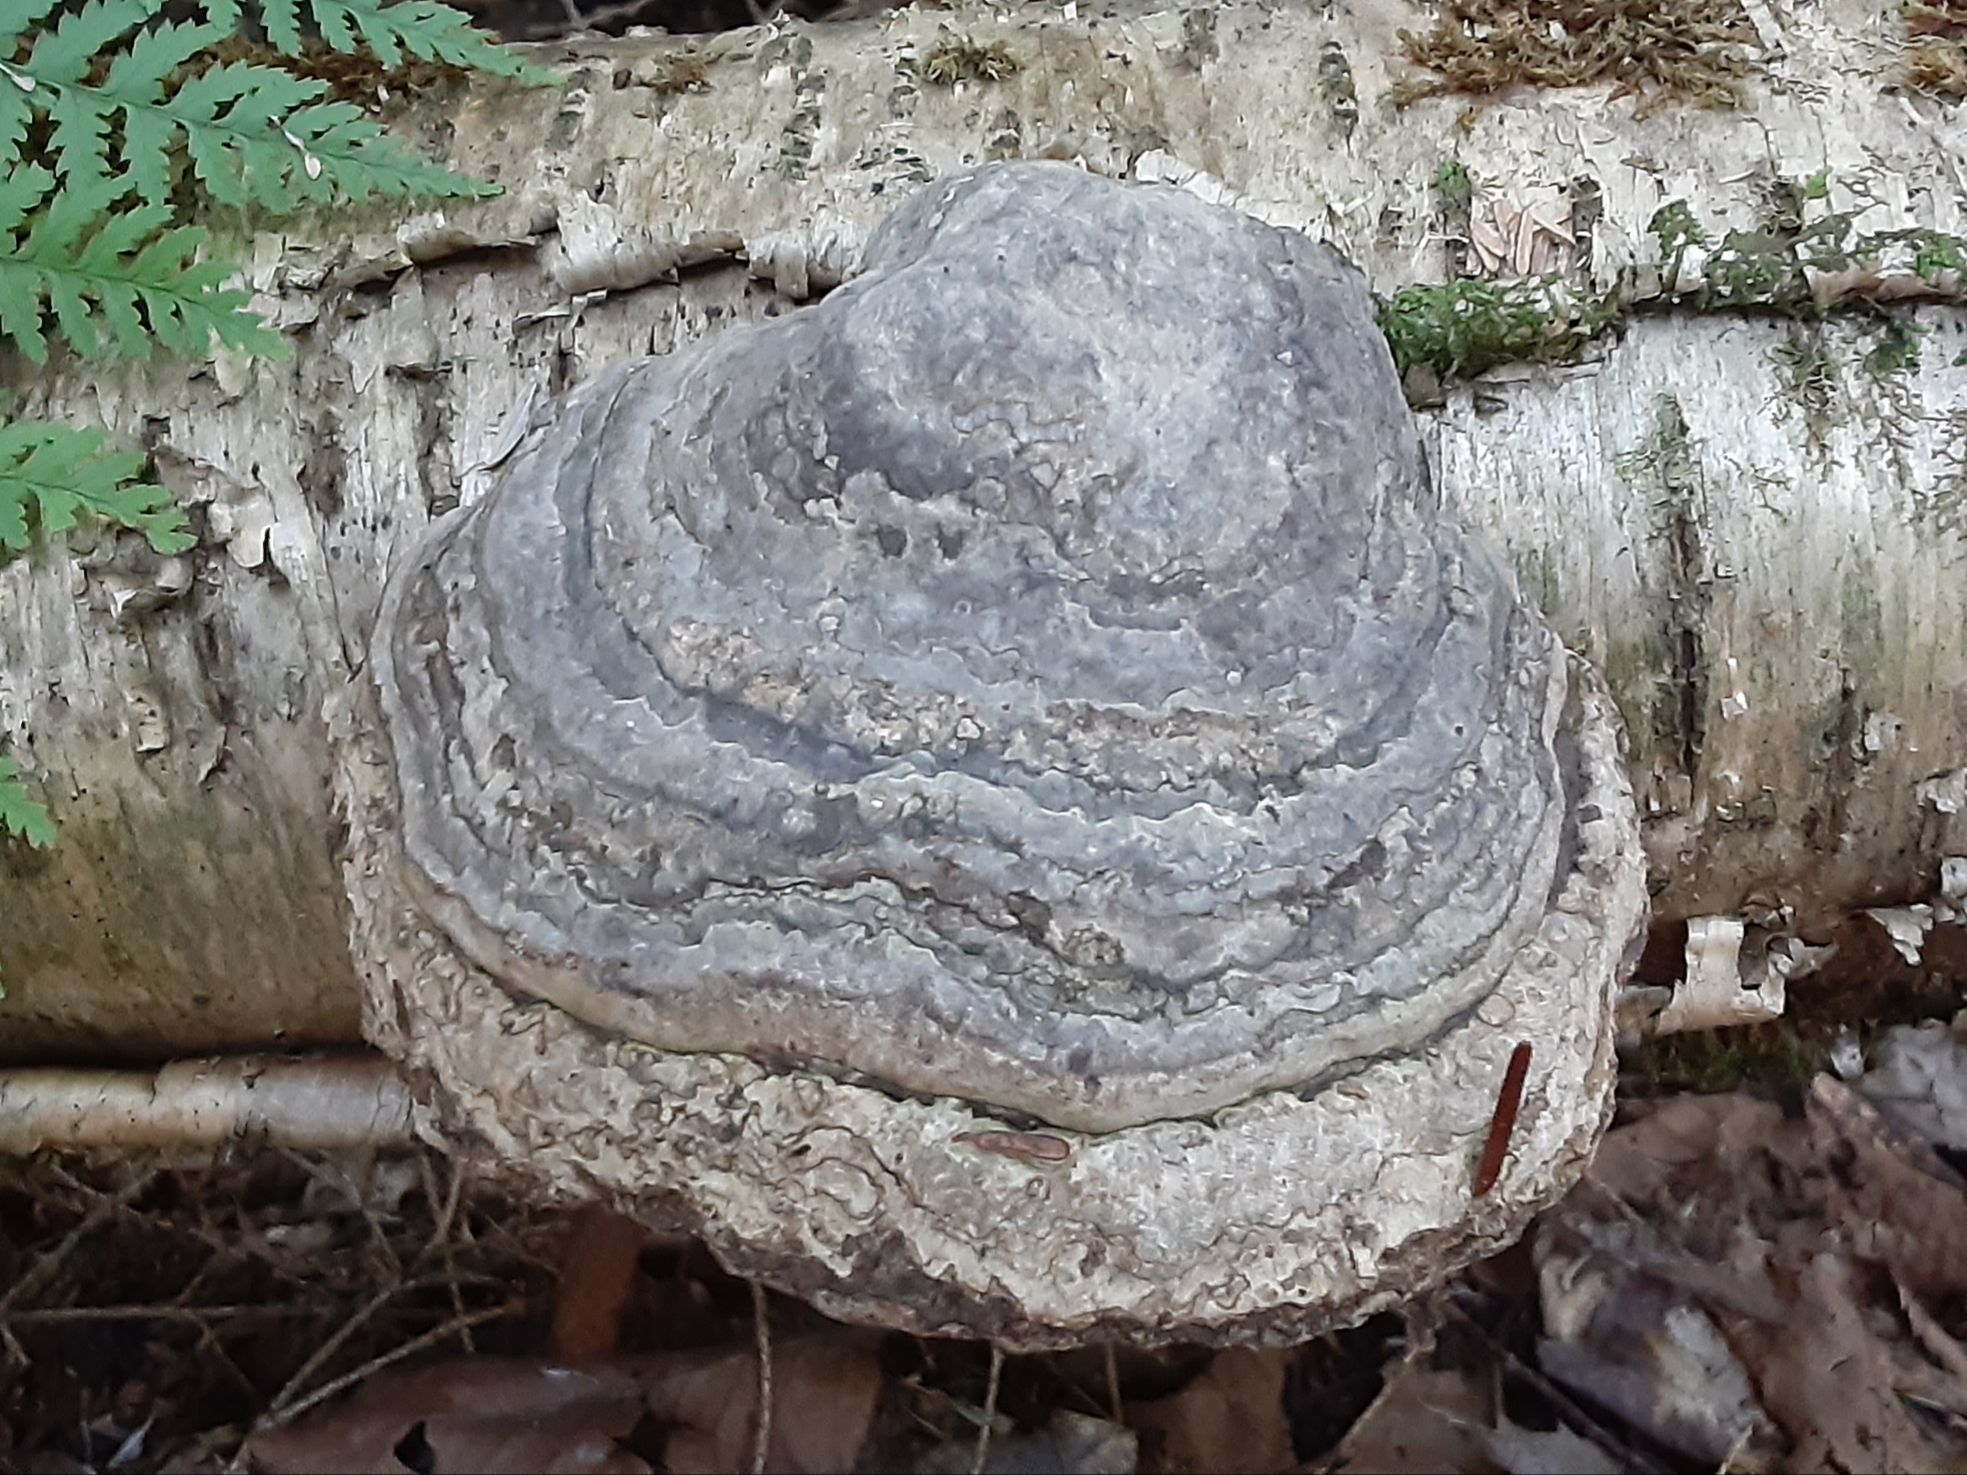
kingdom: Fungi
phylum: Basidiomycota
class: Agaricomycetes
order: Polyporales
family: Polyporaceae
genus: Fomes
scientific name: Fomes fomentarius
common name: Hoof fungus
